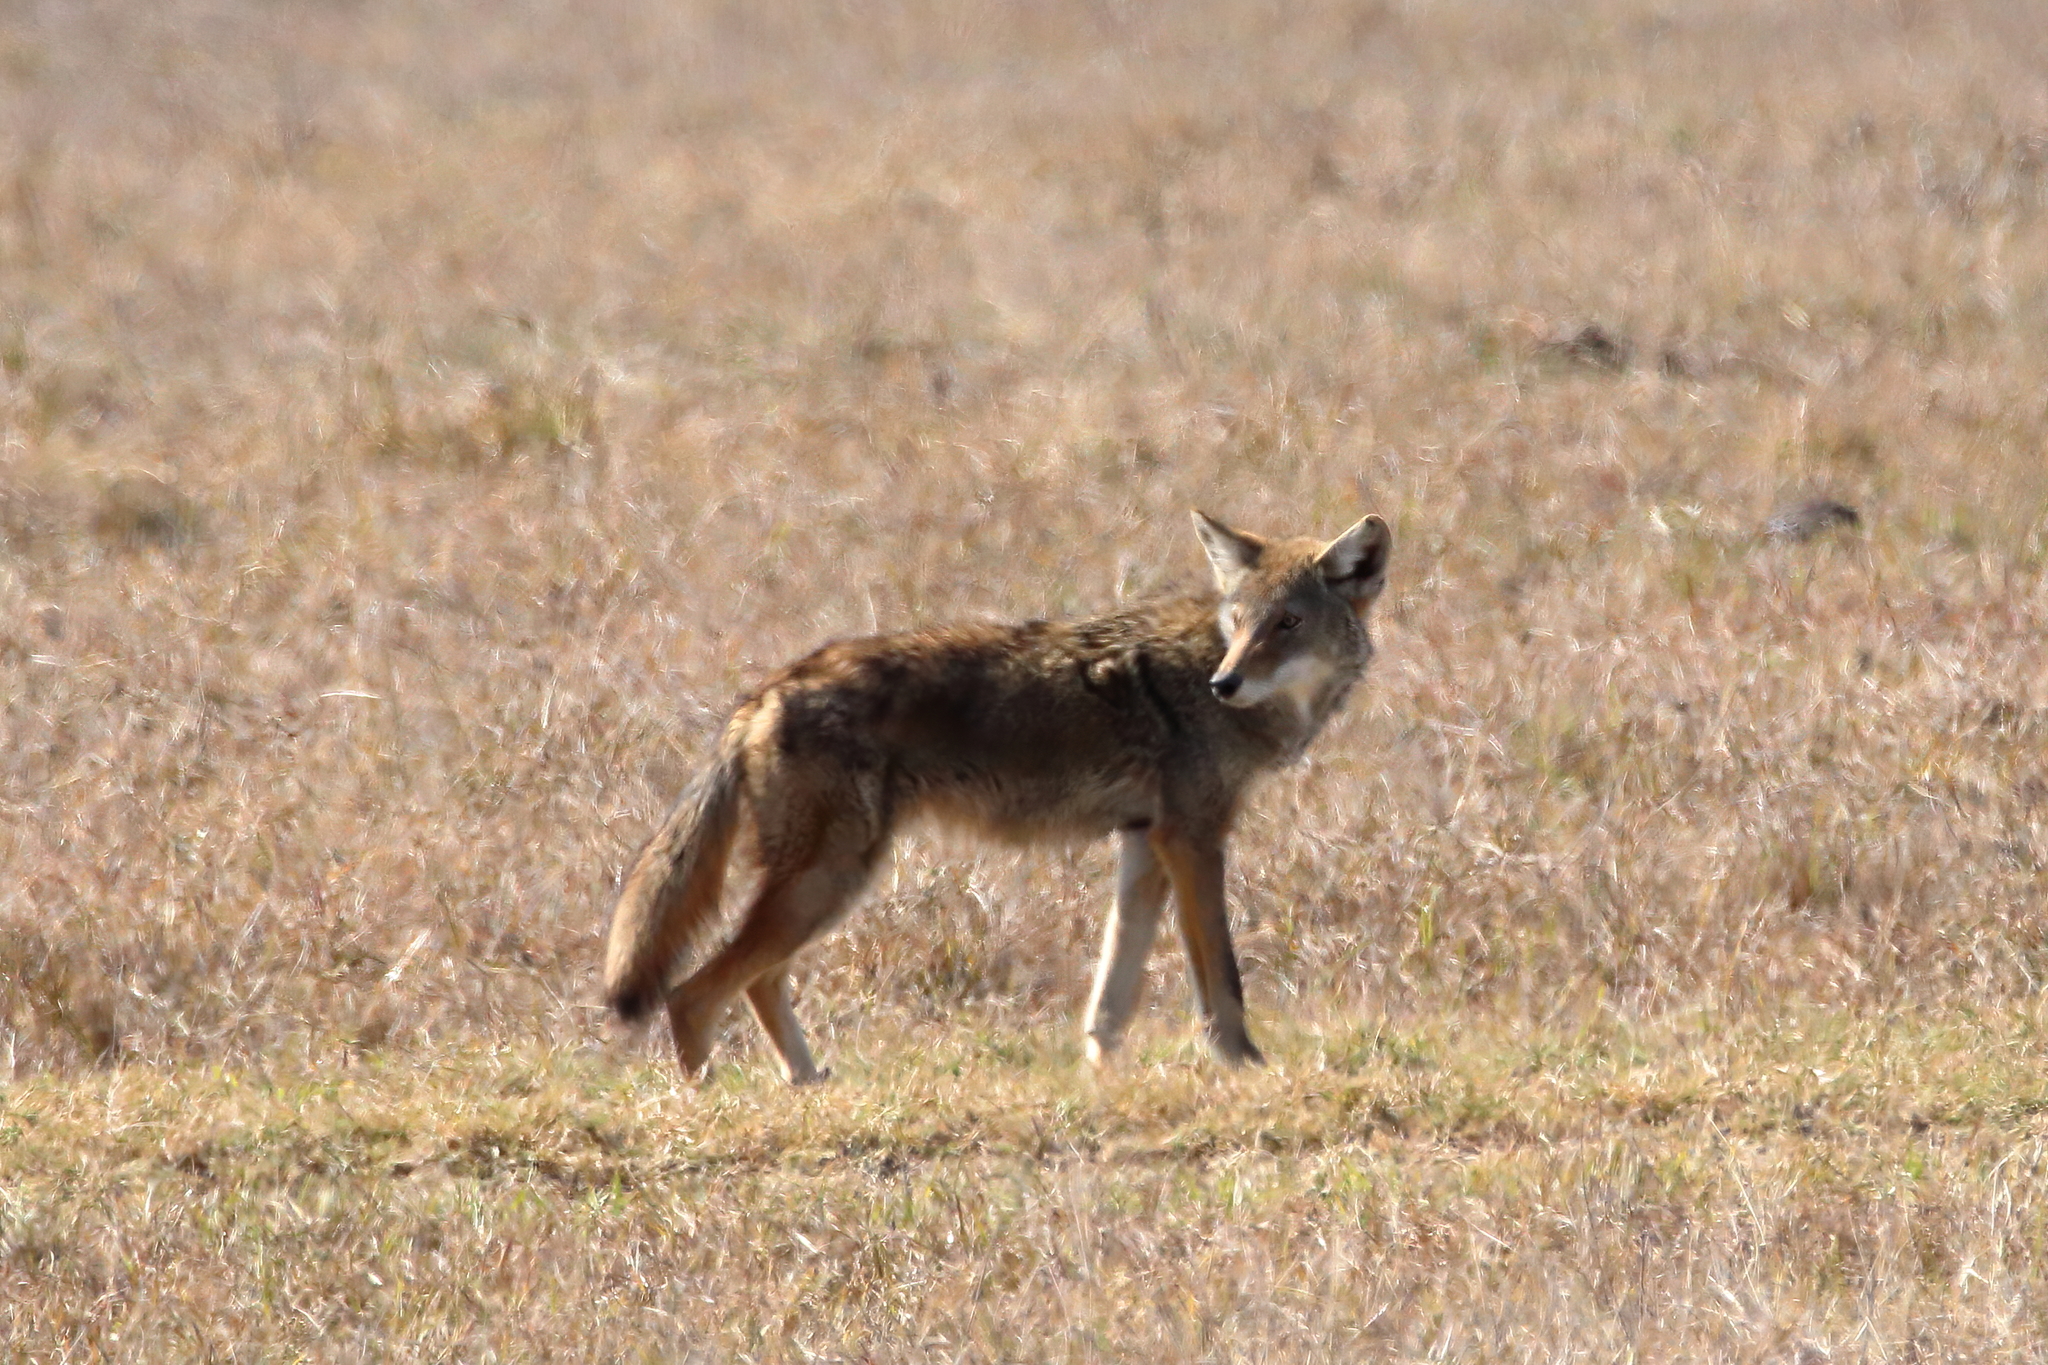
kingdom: Animalia
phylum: Chordata
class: Mammalia
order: Carnivora
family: Canidae
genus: Canis
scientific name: Canis latrans
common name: Coyote
